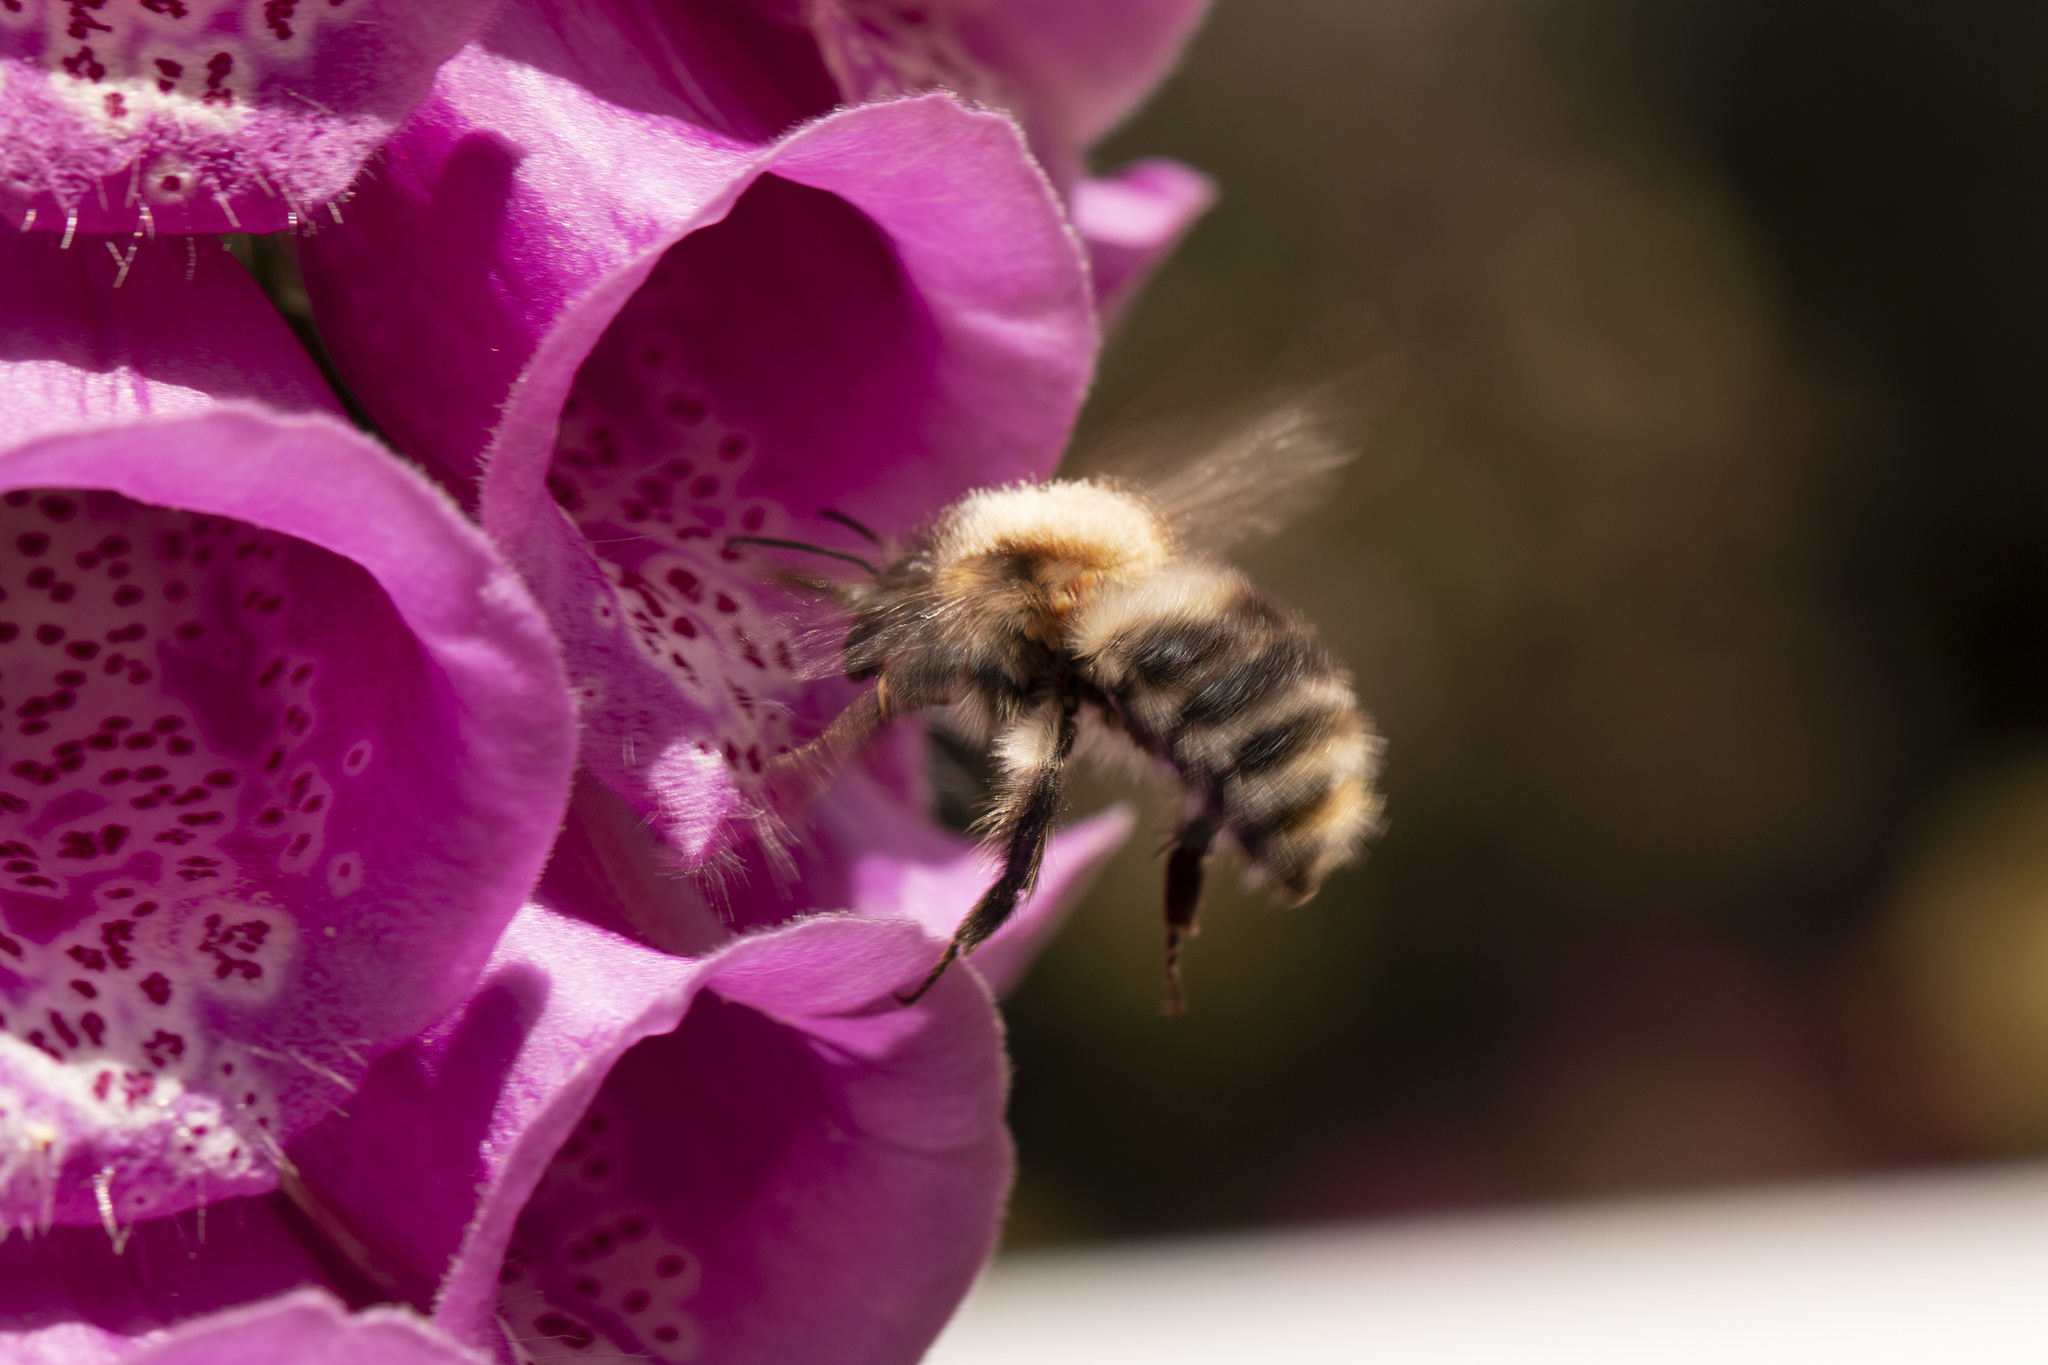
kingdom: Animalia
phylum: Arthropoda
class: Insecta
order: Hymenoptera
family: Apidae
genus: Bombus
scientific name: Bombus pascuorum
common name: Common carder bee
